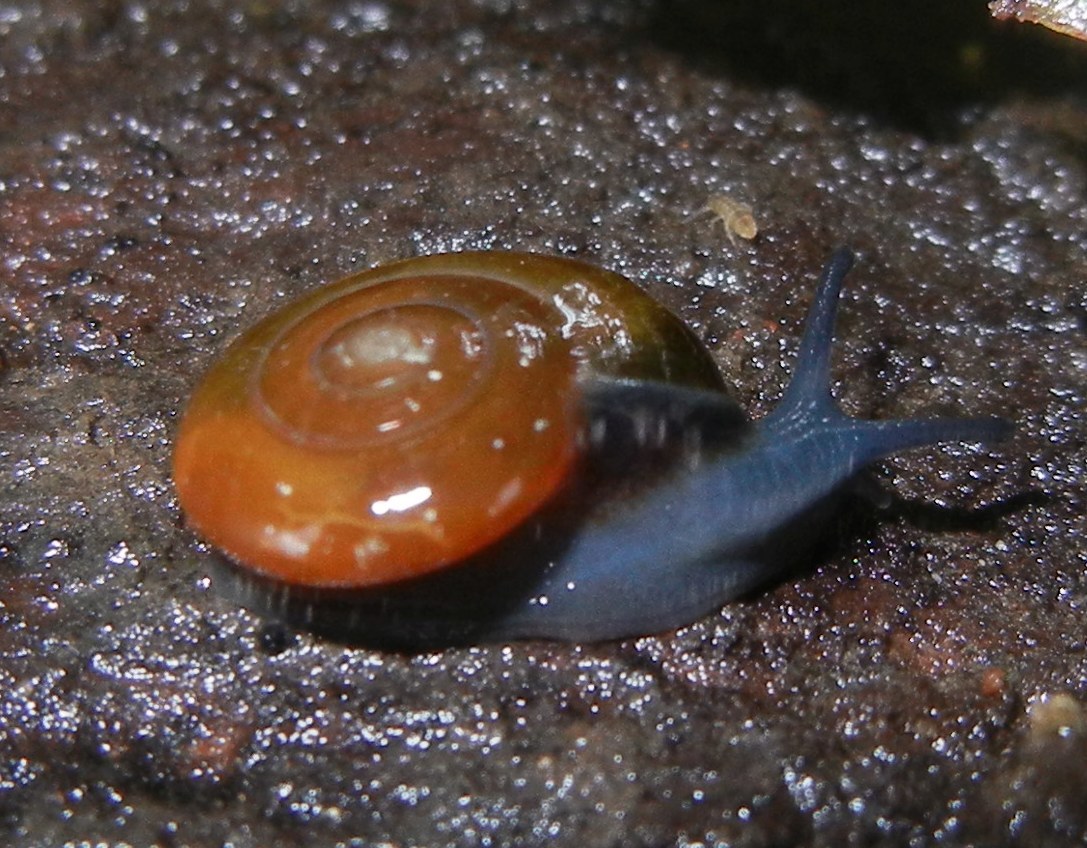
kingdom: Animalia
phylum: Mollusca
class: Gastropoda
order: Stylommatophora
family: Oxychilidae
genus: Oxychilus
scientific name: Oxychilus navarricus
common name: Swiss glass-snail
